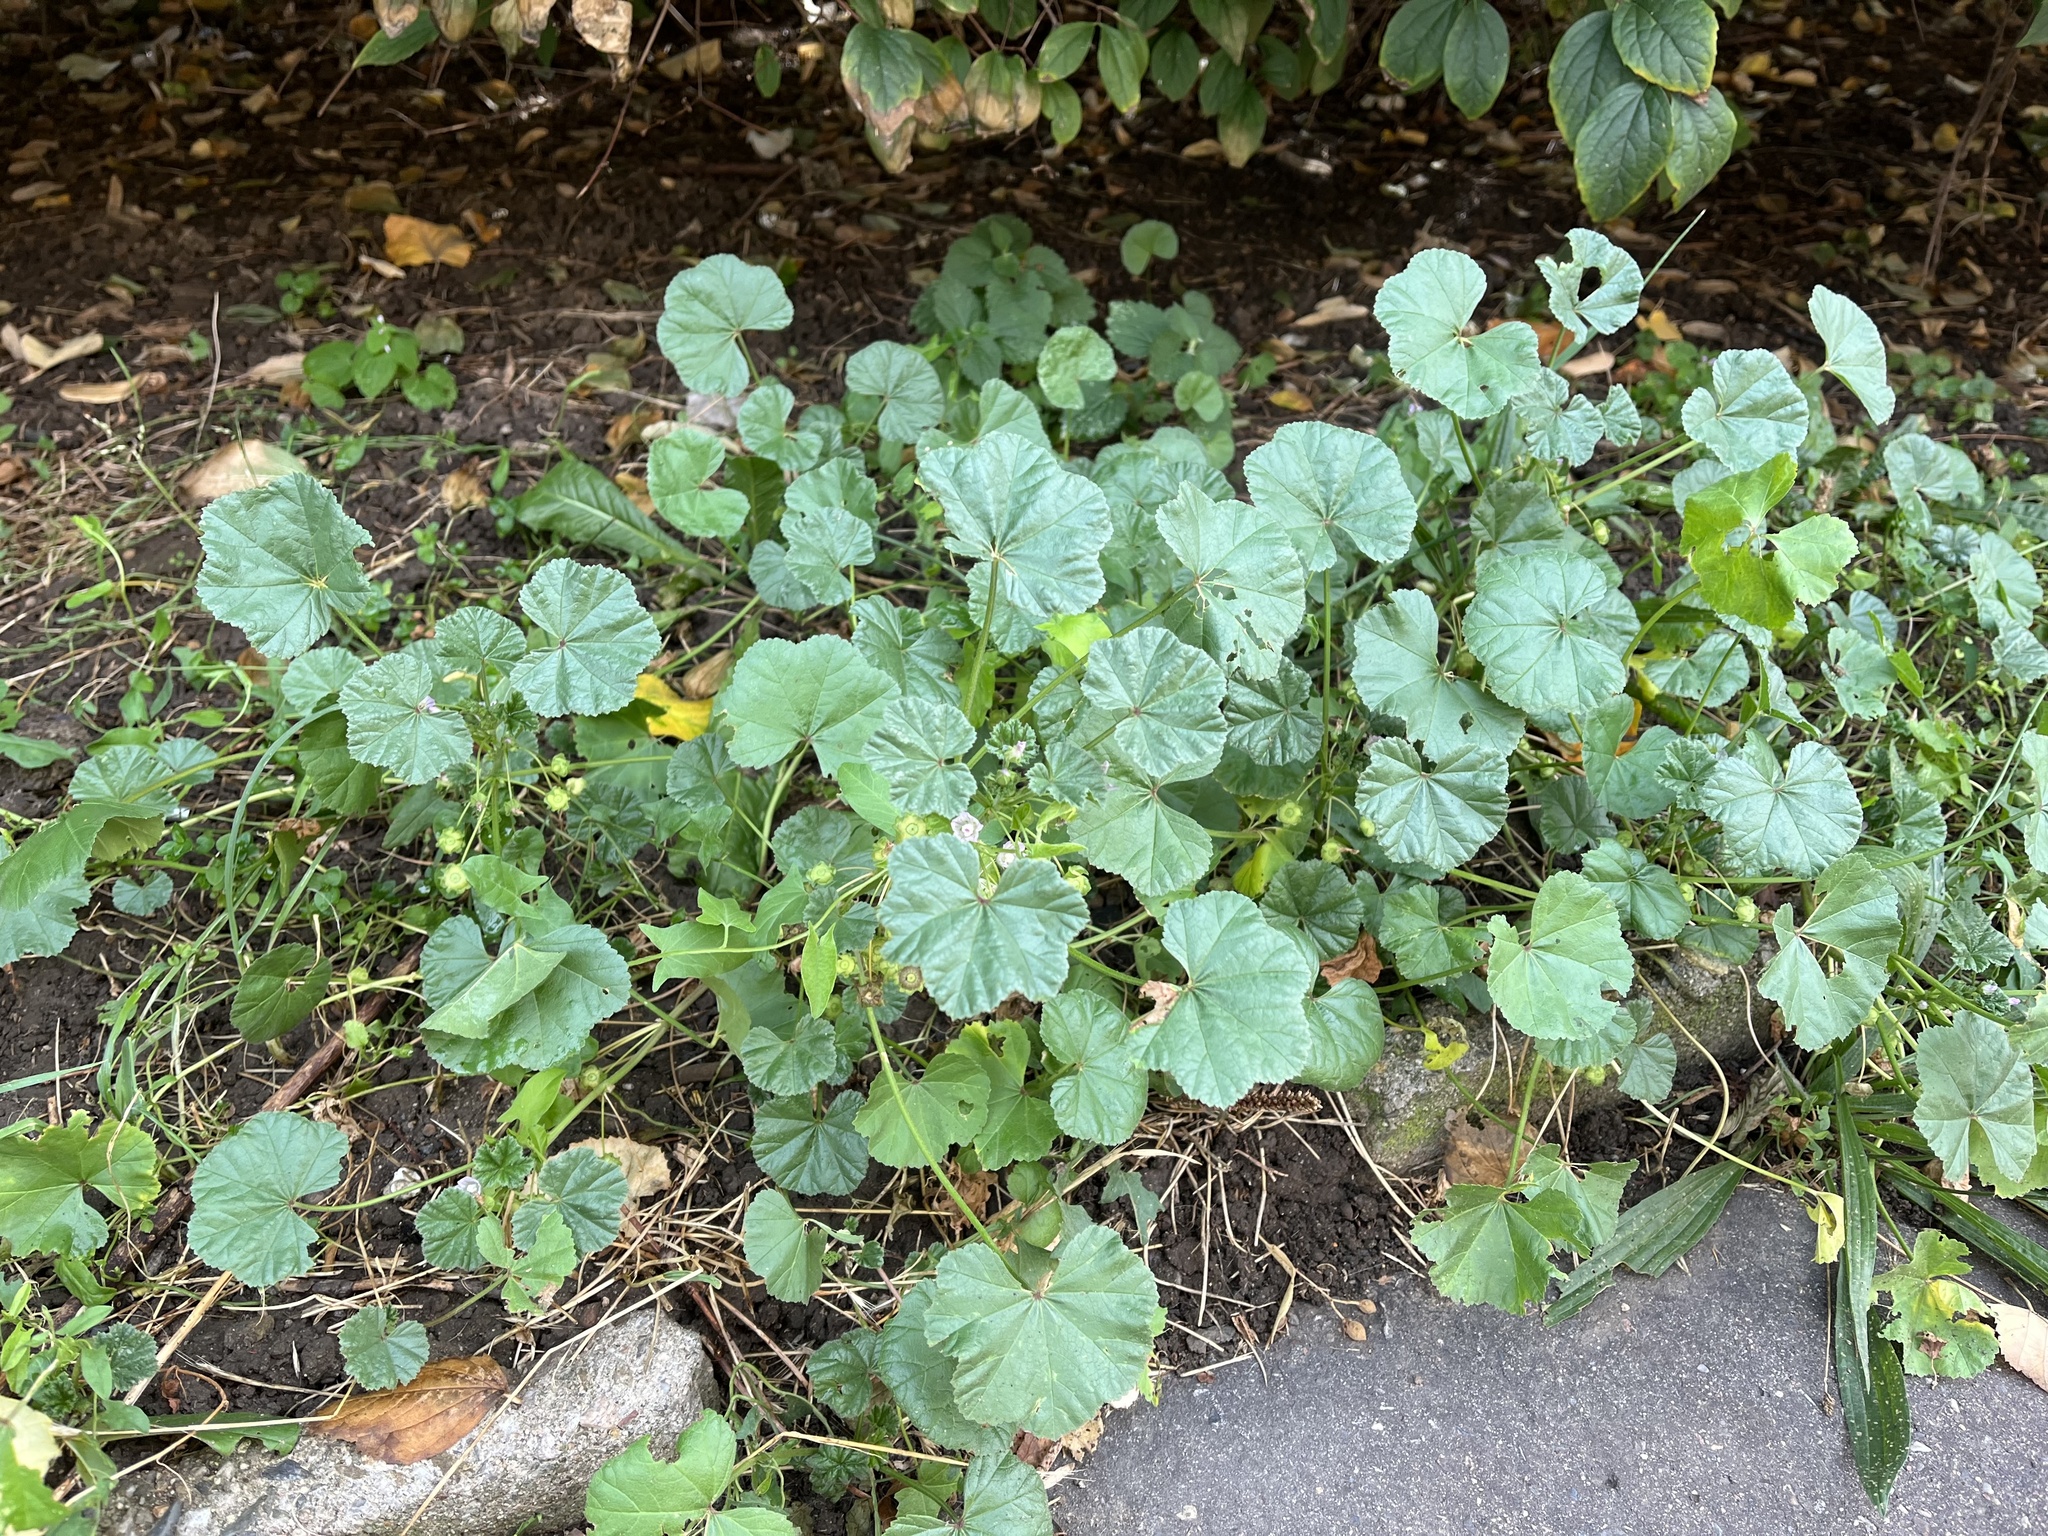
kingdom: Plantae
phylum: Tracheophyta
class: Magnoliopsida
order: Malvales
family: Malvaceae
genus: Malva
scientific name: Malva neglecta
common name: Common mallow
